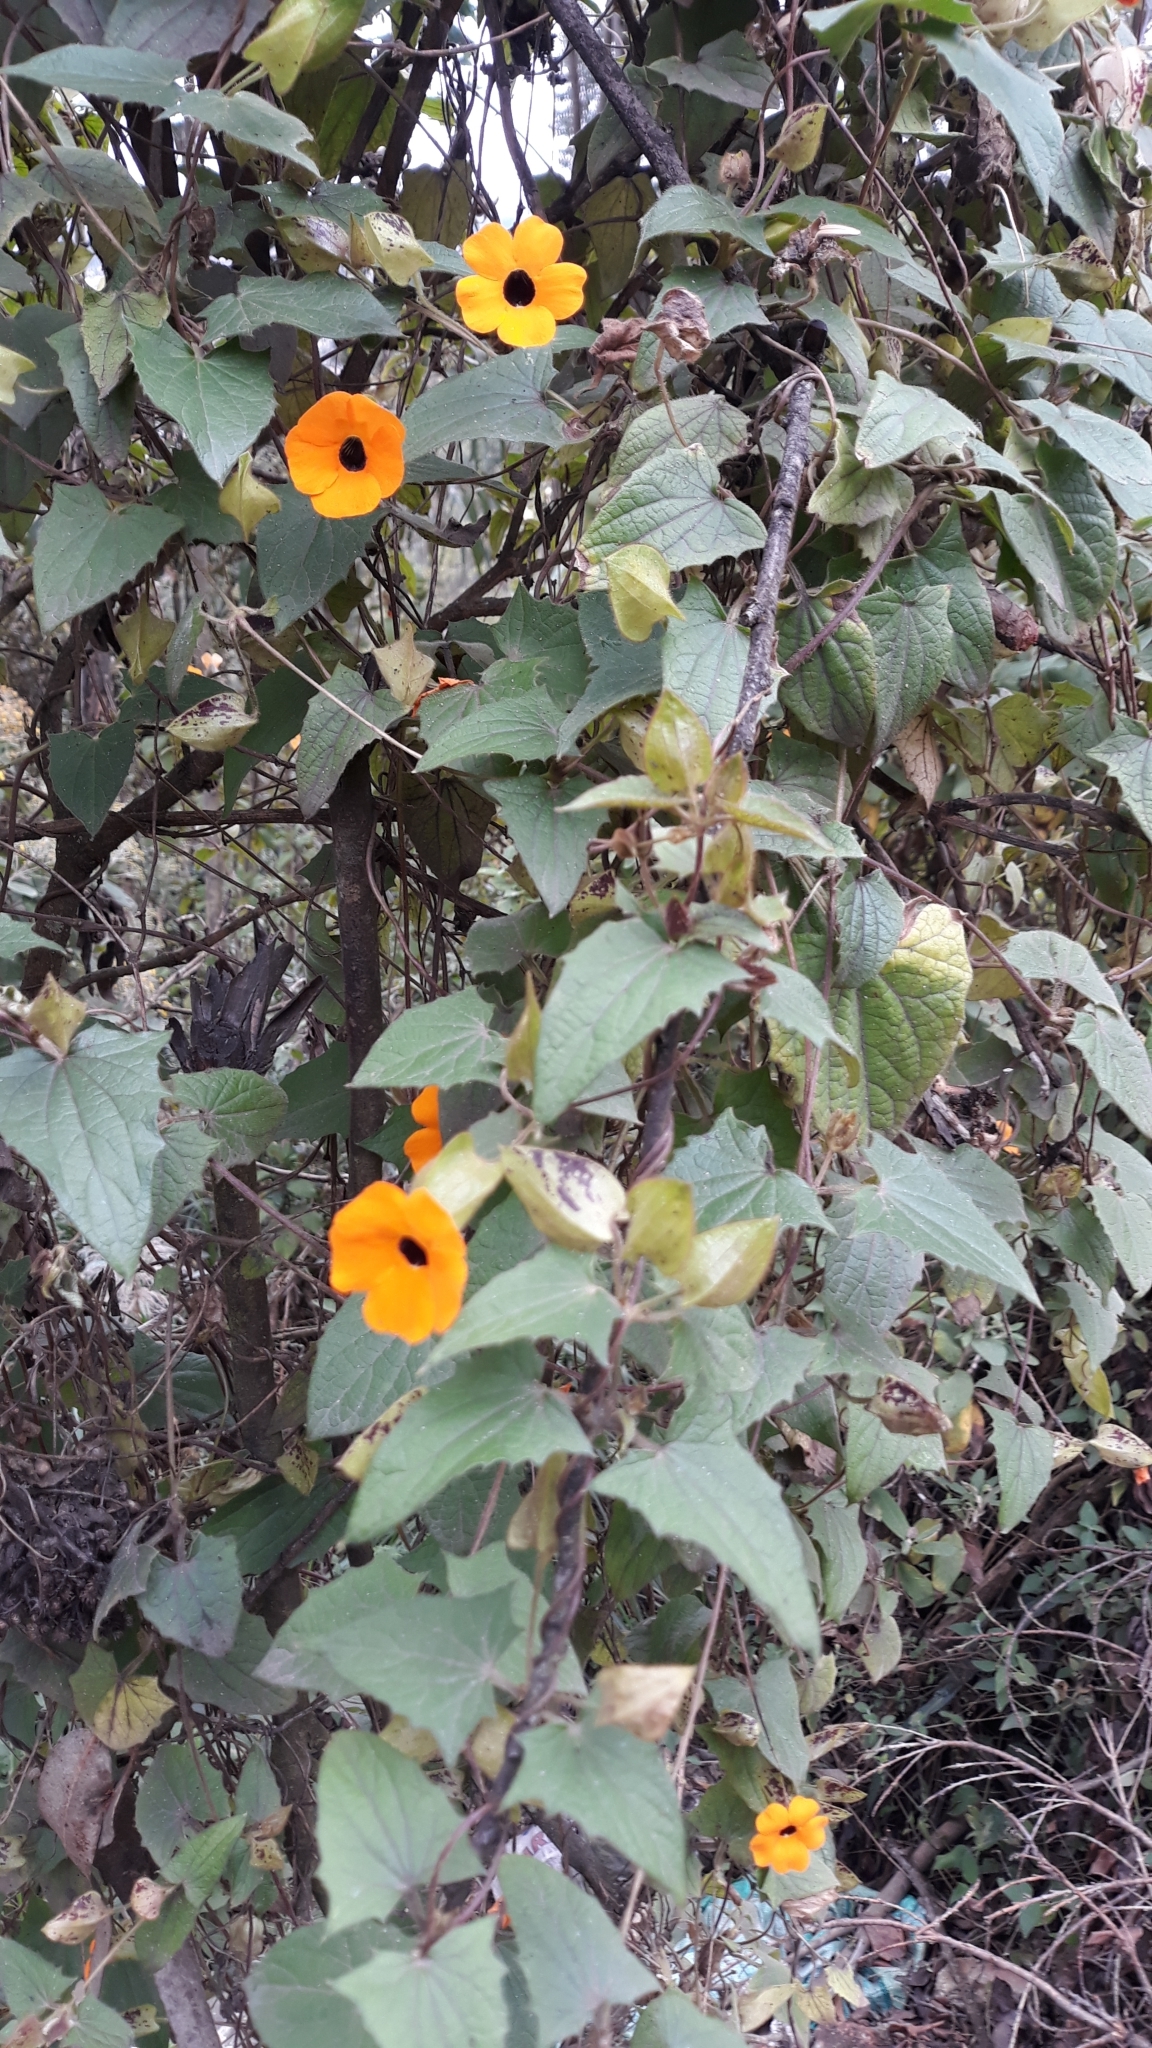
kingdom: Plantae
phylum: Tracheophyta
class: Magnoliopsida
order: Lamiales
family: Acanthaceae
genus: Thunbergia
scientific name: Thunbergia alata
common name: Blackeyed susan vine
